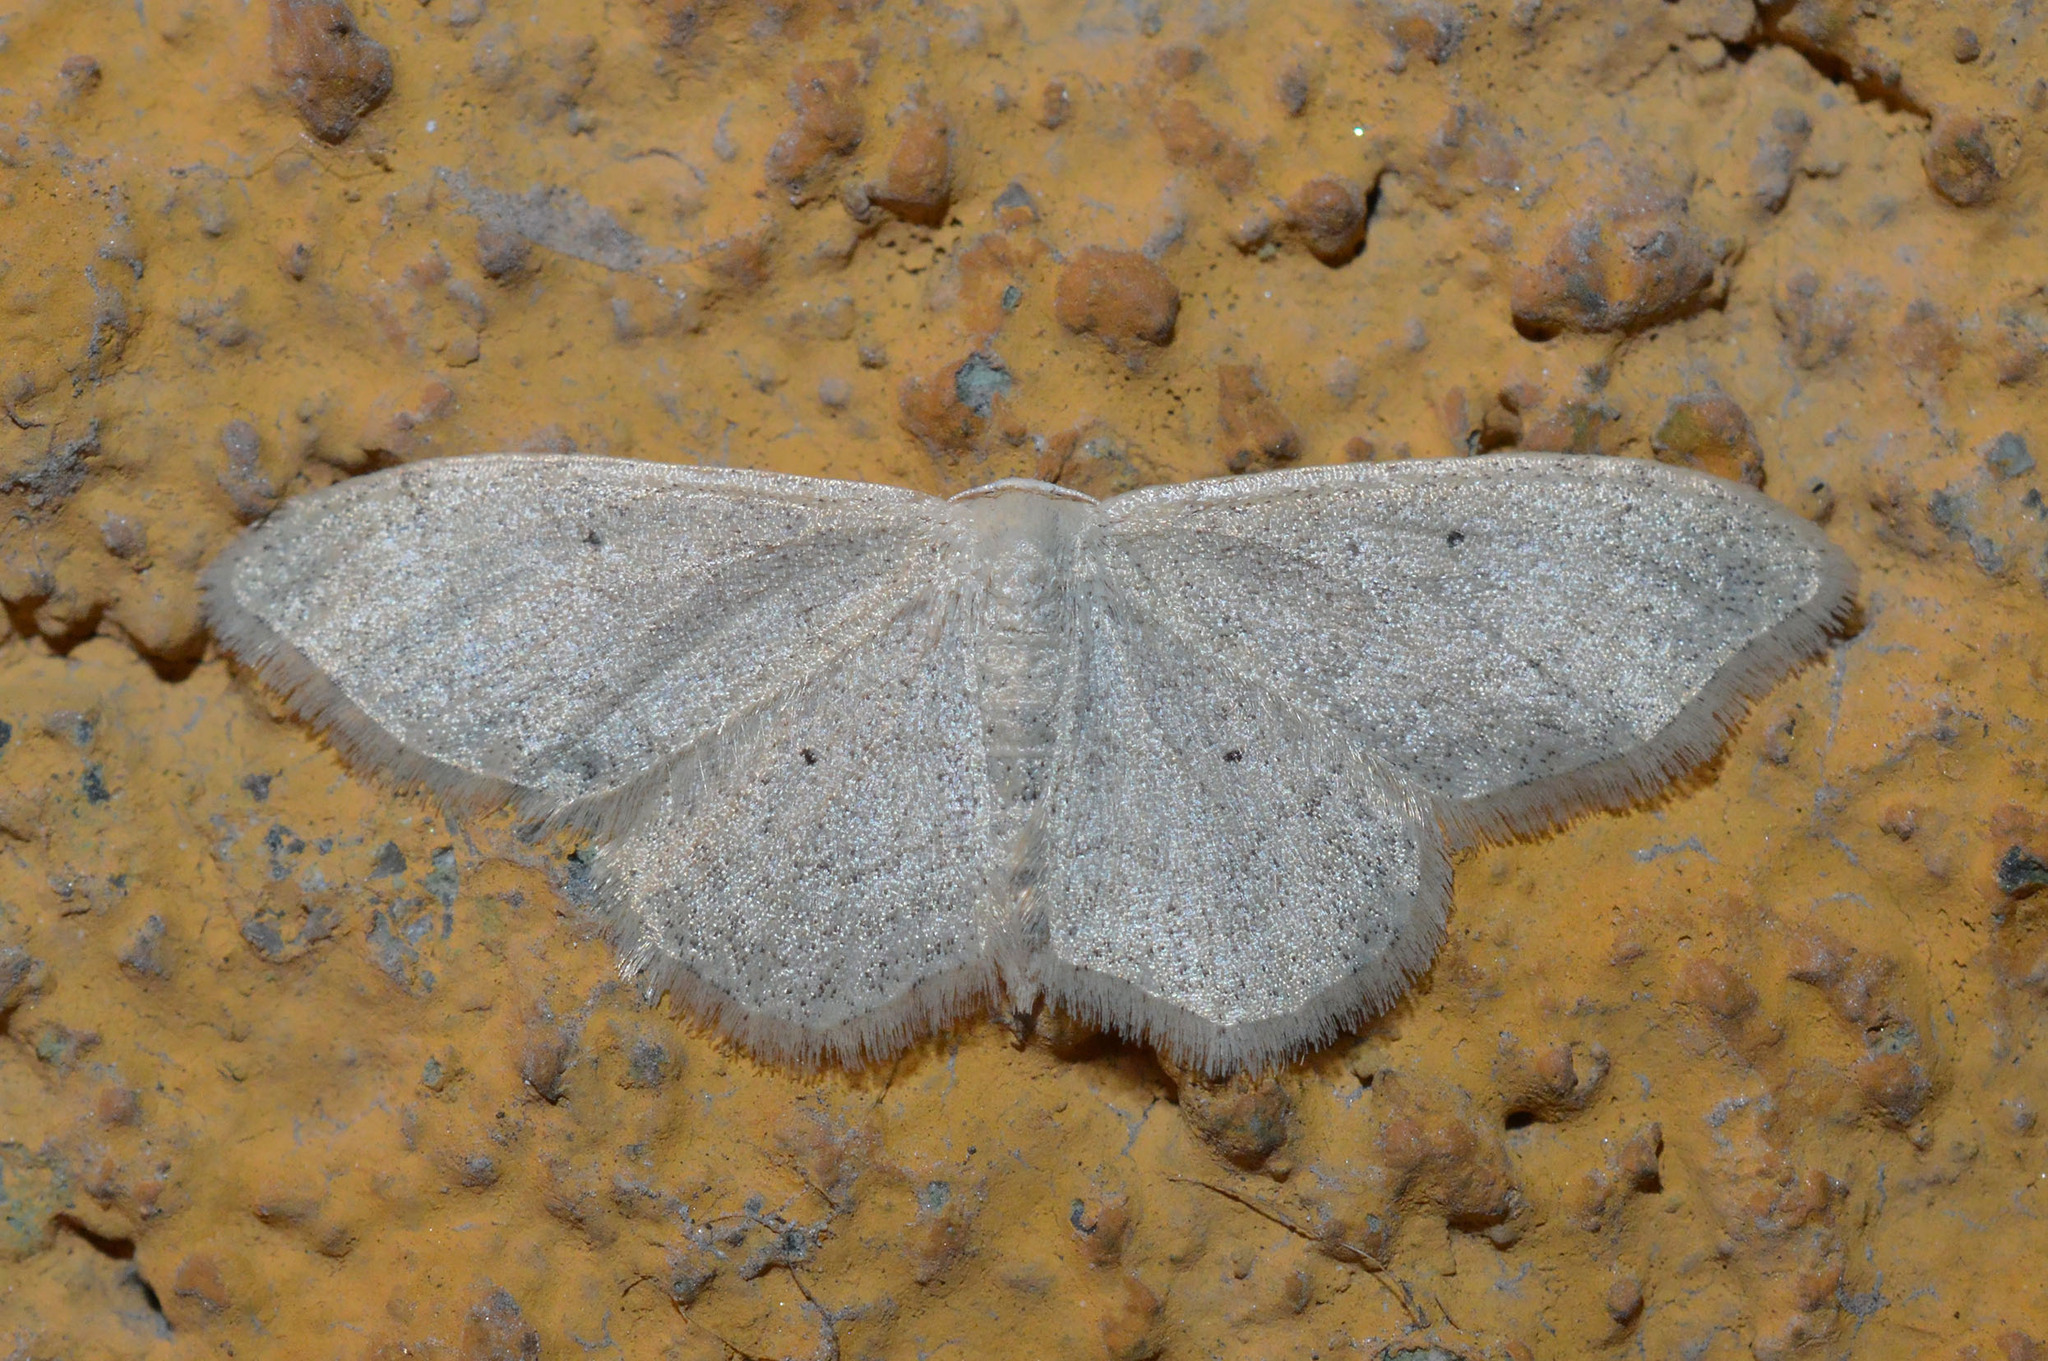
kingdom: Animalia
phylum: Arthropoda
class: Insecta
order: Lepidoptera
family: Geometridae
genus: Idaea
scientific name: Idaea straminata
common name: Plain wave
